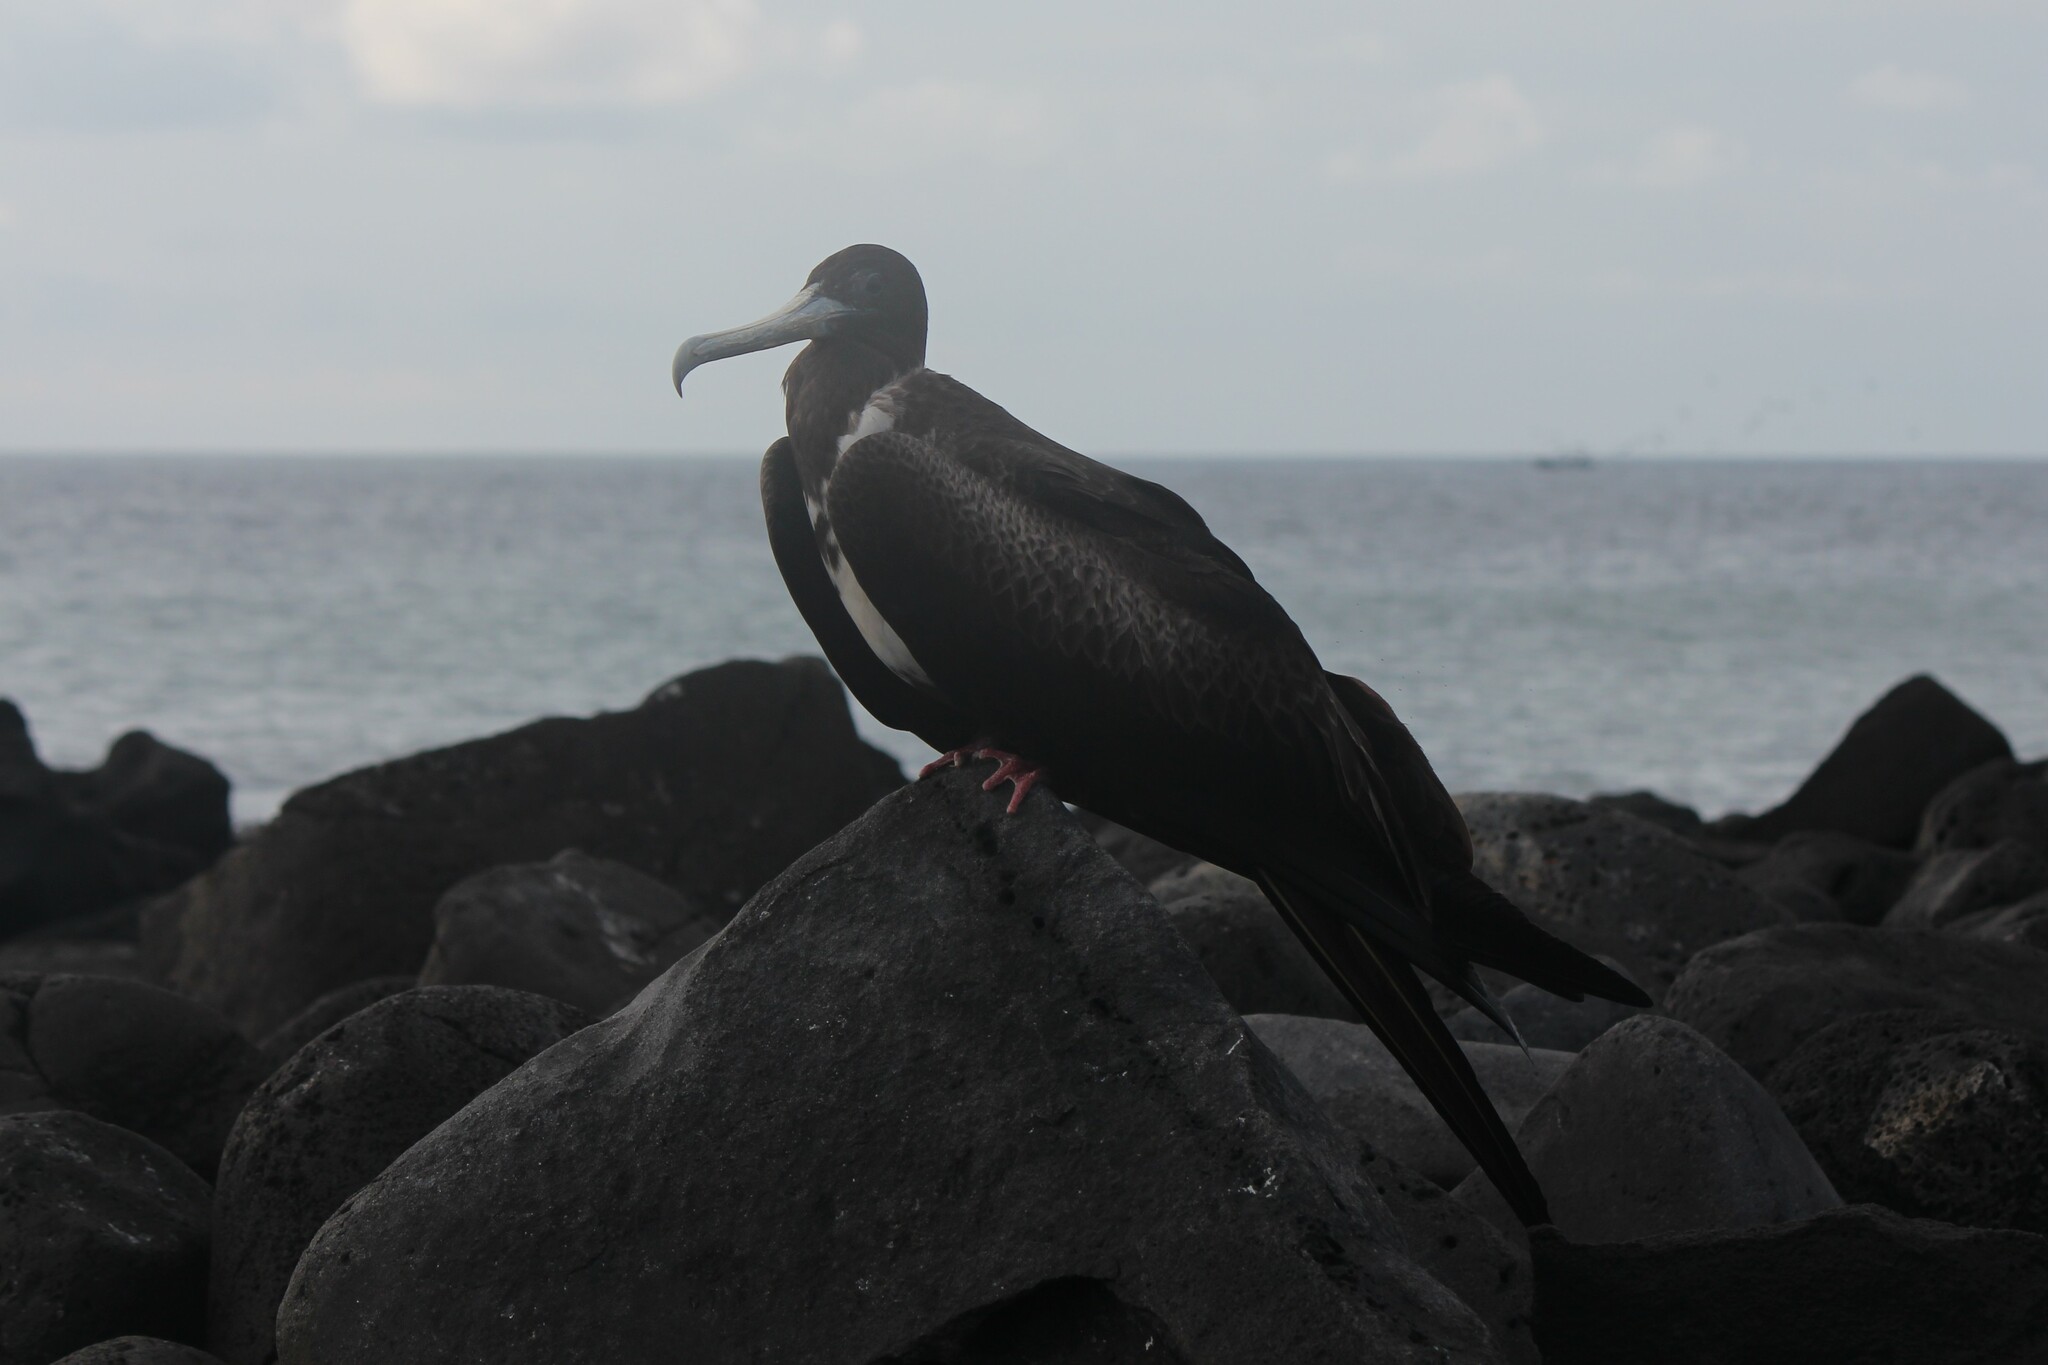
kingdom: Animalia
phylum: Chordata
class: Aves
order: Suliformes
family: Fregatidae
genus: Fregata
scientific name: Fregata magnificens
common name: Magnificent frigatebird
